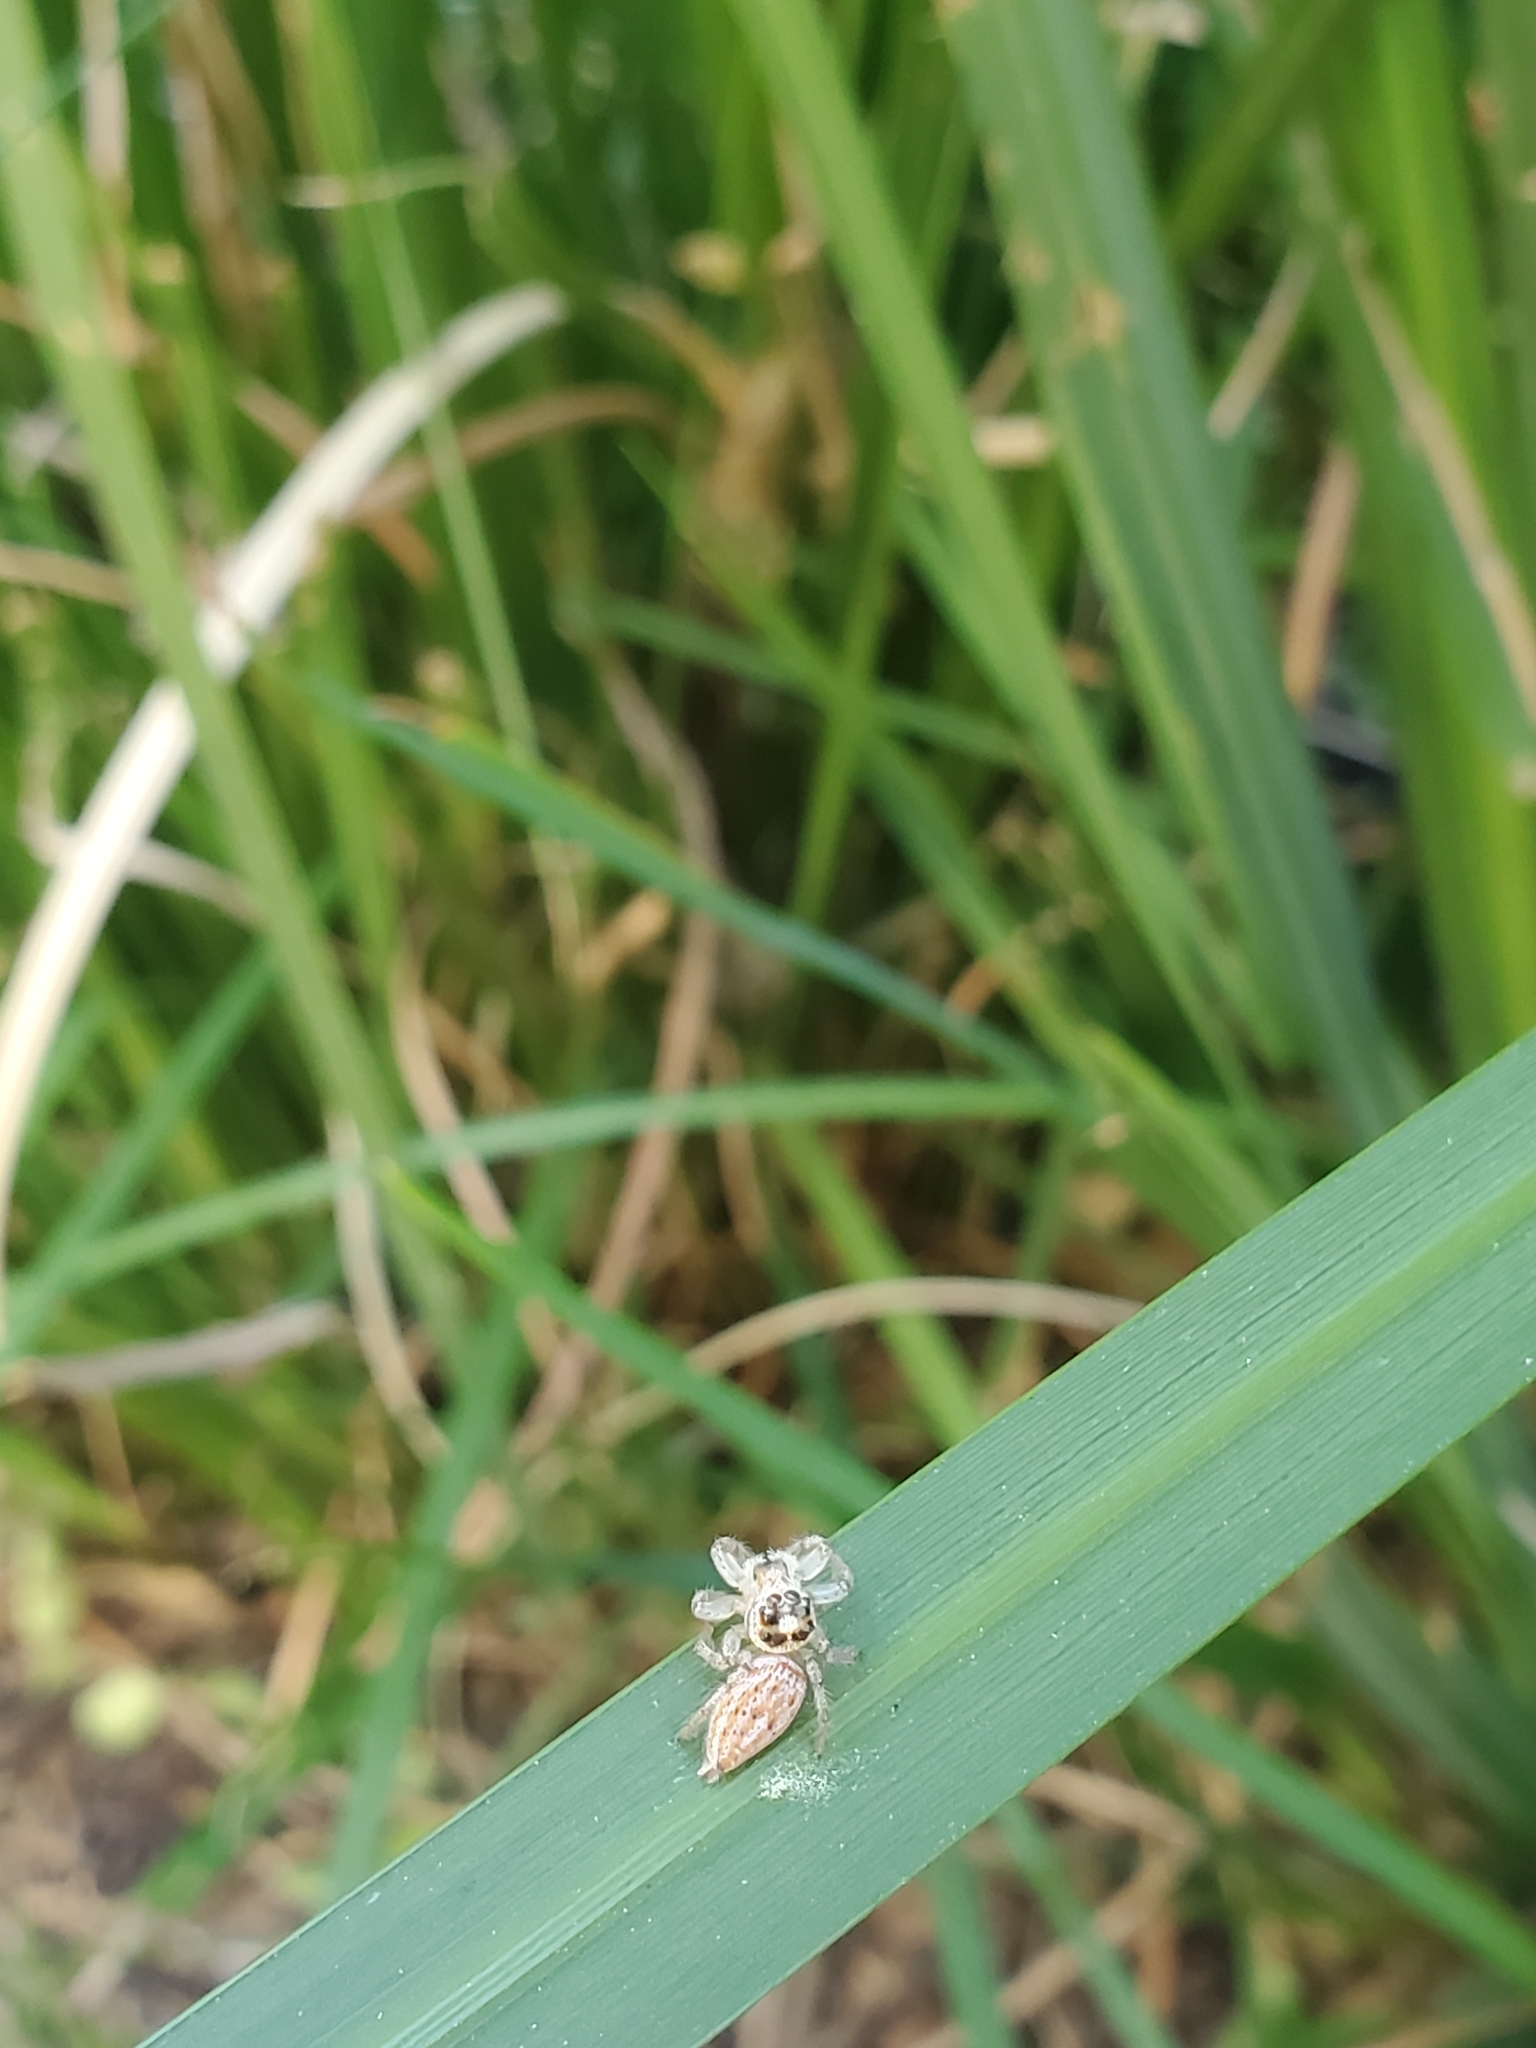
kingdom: Animalia
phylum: Arthropoda
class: Arachnida
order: Araneae
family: Salticidae
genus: Colonus
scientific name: Colonus hesperus
